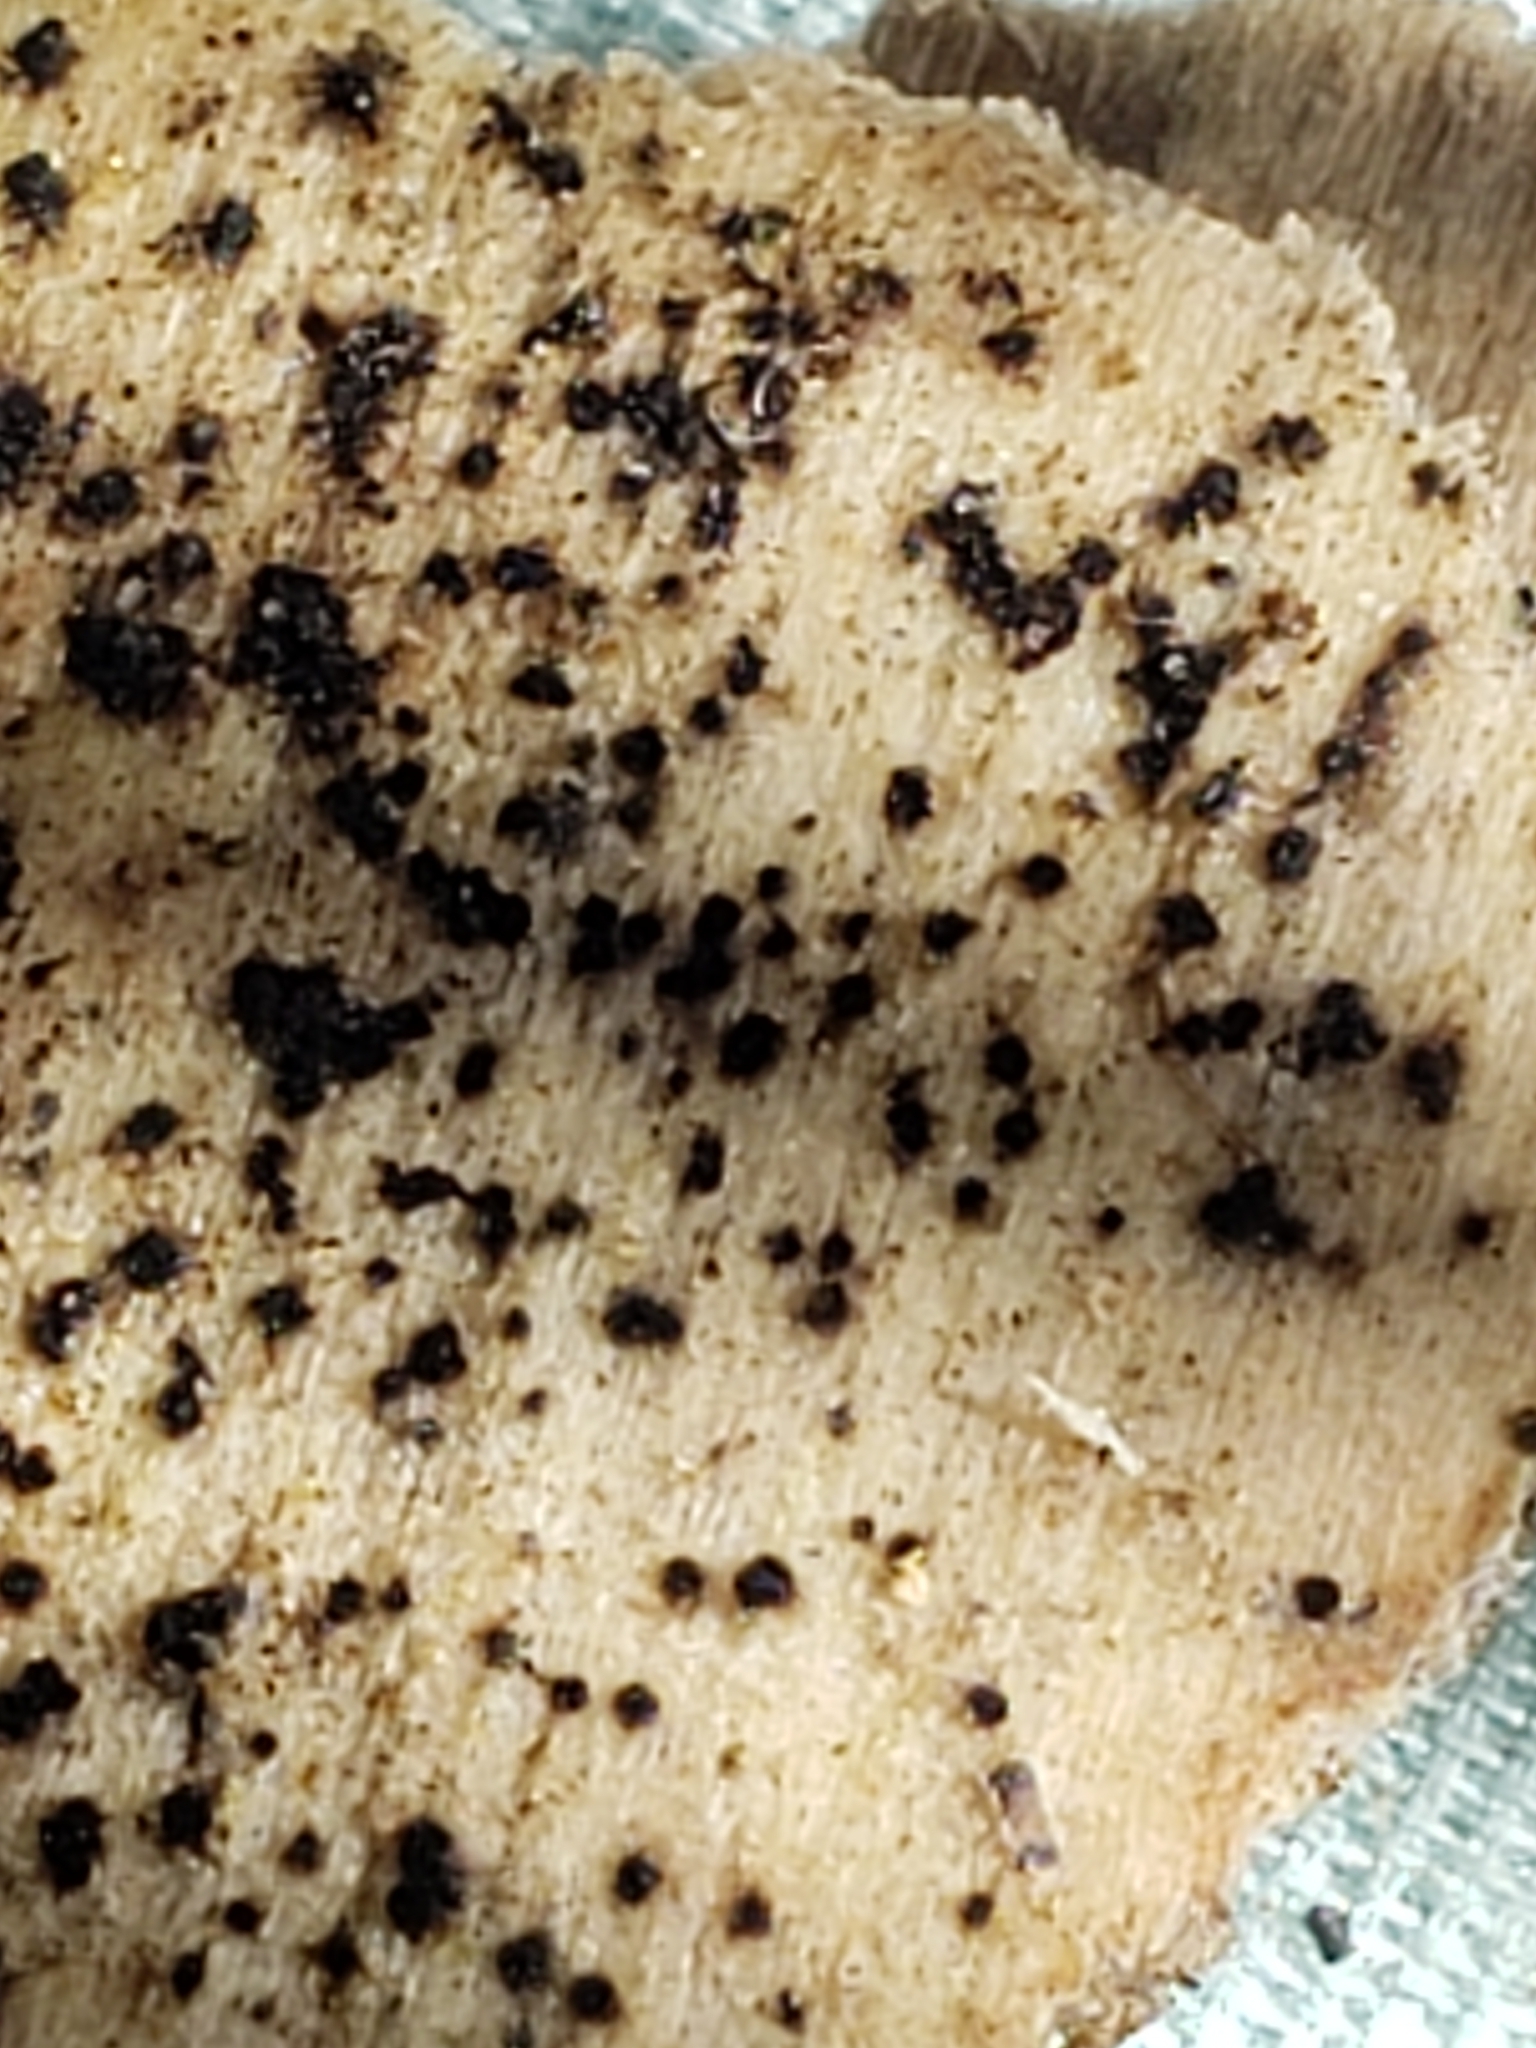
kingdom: Fungi
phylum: Ascomycota
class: Dothideomycetes
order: Pleosporales
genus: Berkleasmium
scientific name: Berkleasmium concinnum
